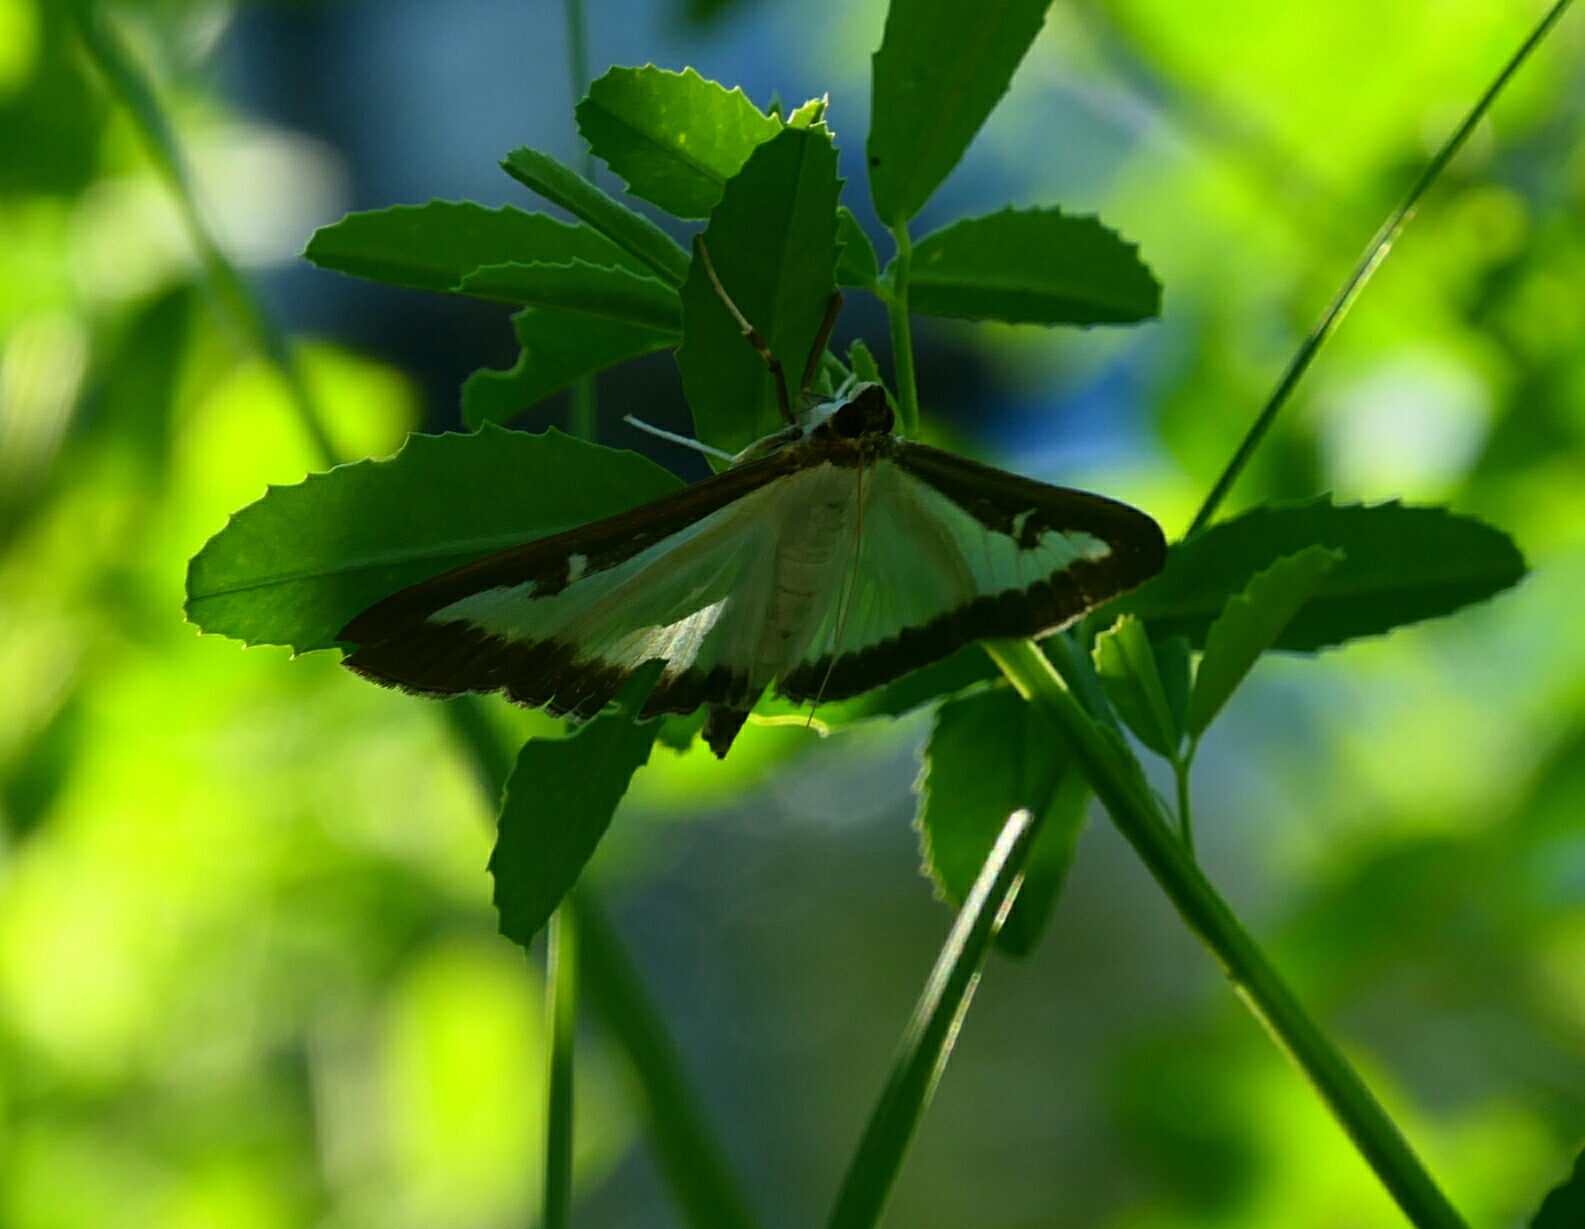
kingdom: Animalia
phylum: Arthropoda
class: Insecta
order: Lepidoptera
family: Crambidae
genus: Cydalima
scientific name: Cydalima perspectalis
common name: Box tree moth
